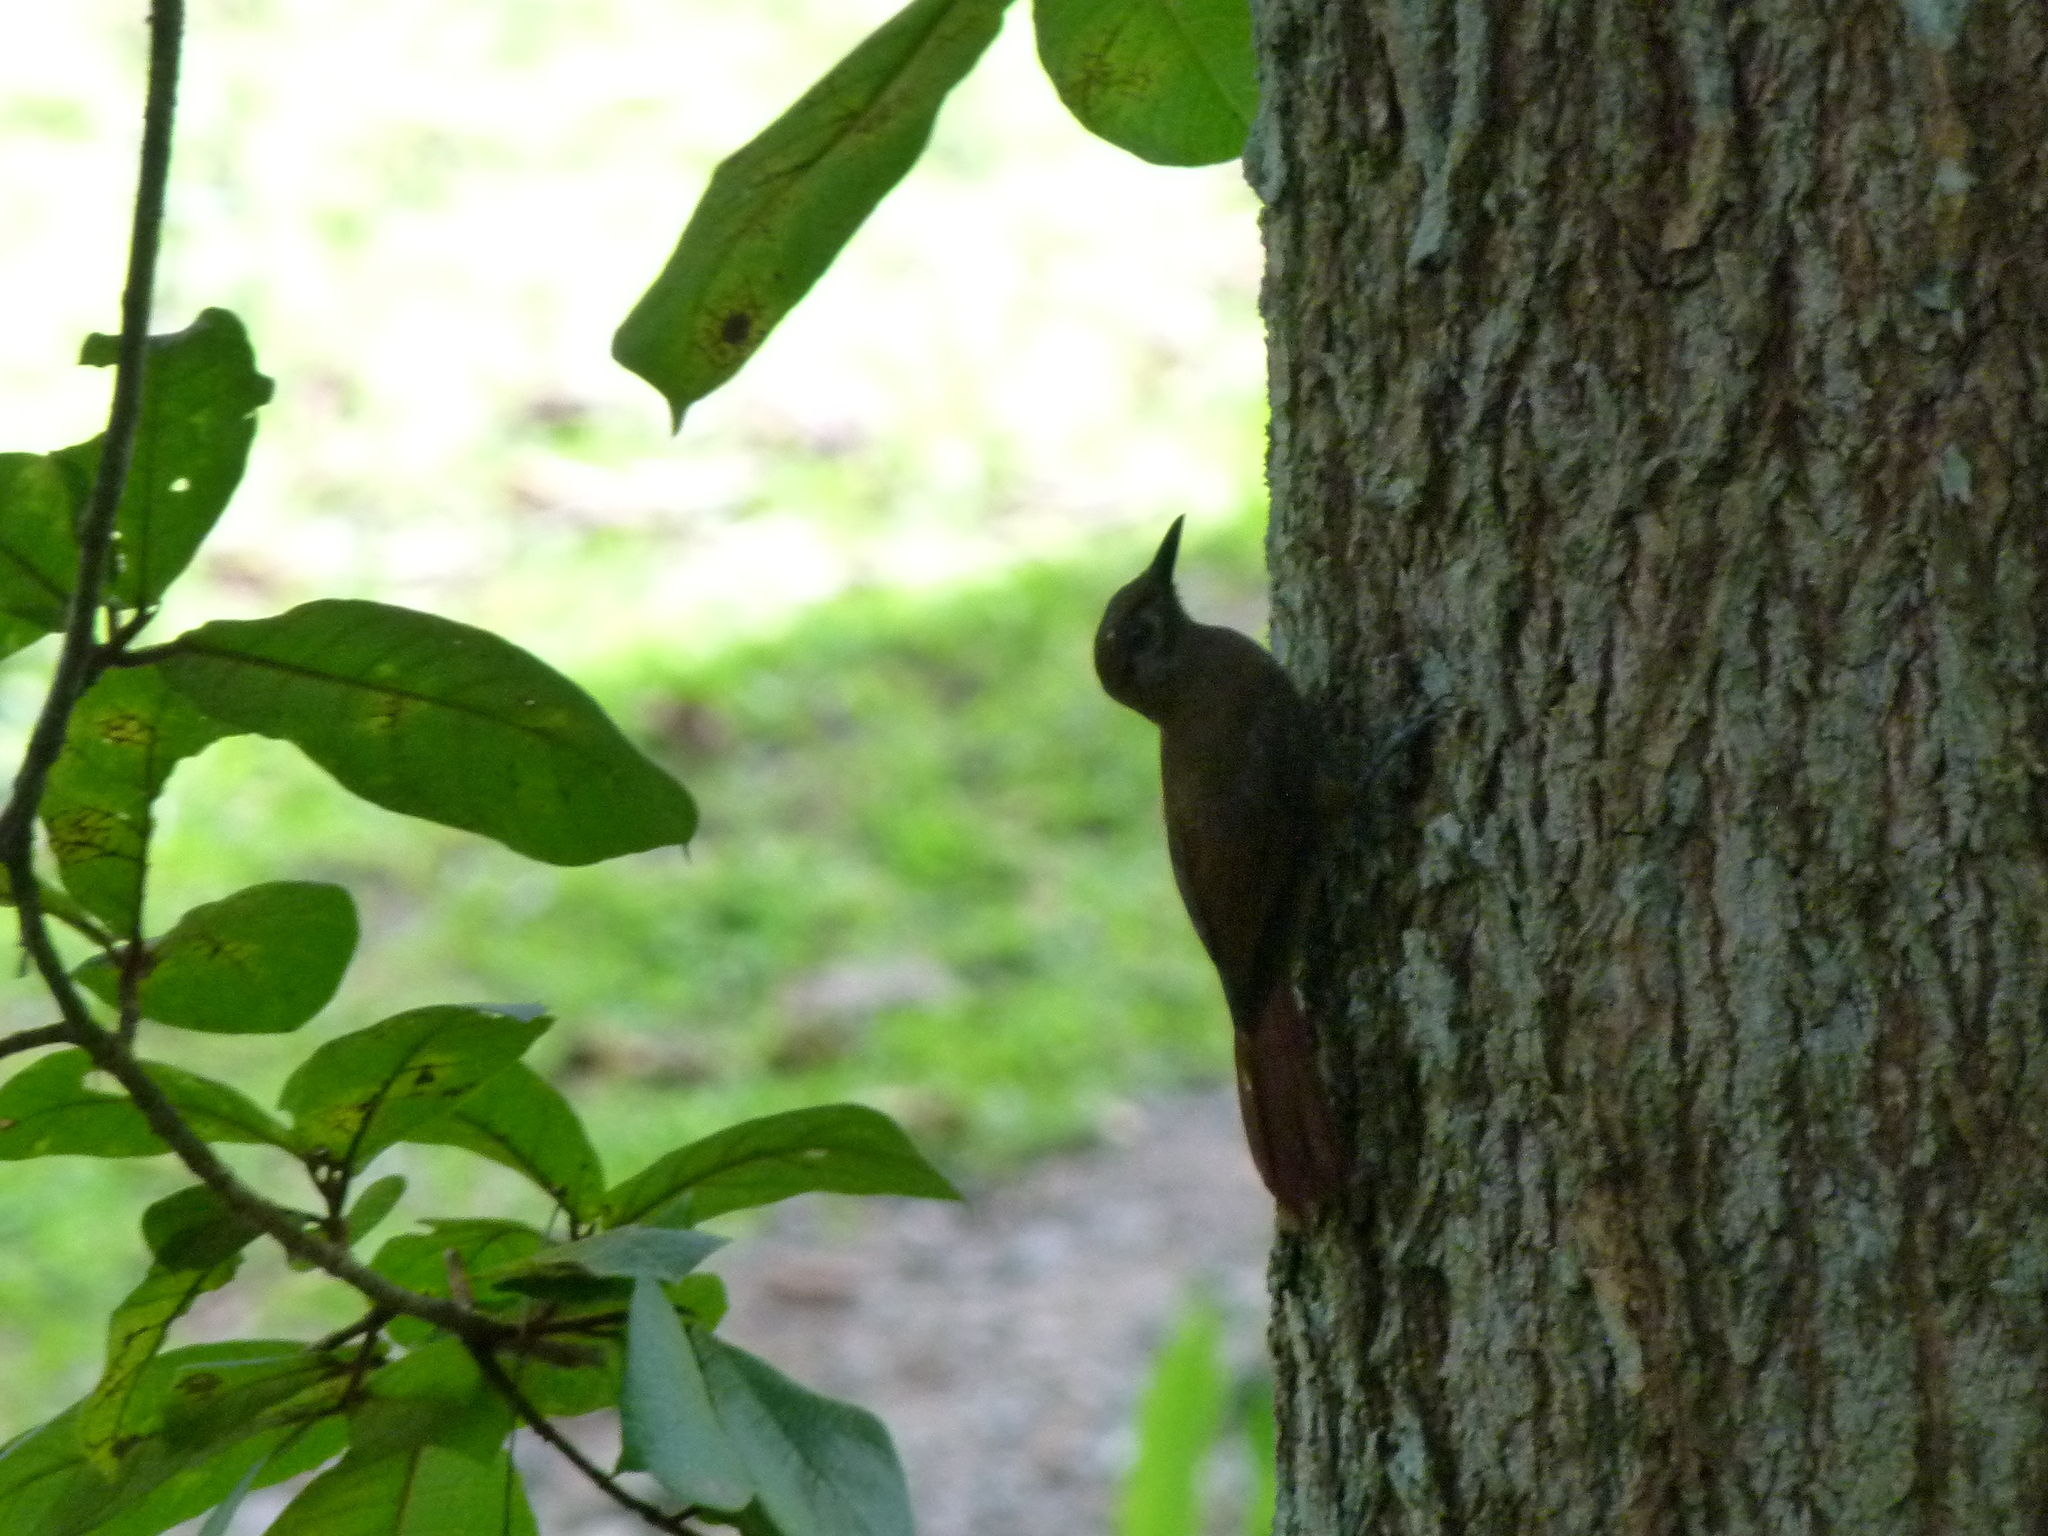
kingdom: Animalia
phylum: Chordata
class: Aves
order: Passeriformes
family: Furnariidae
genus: Dendrocincla
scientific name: Dendrocincla fuliginosa
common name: Plain-brown woodcreeper
